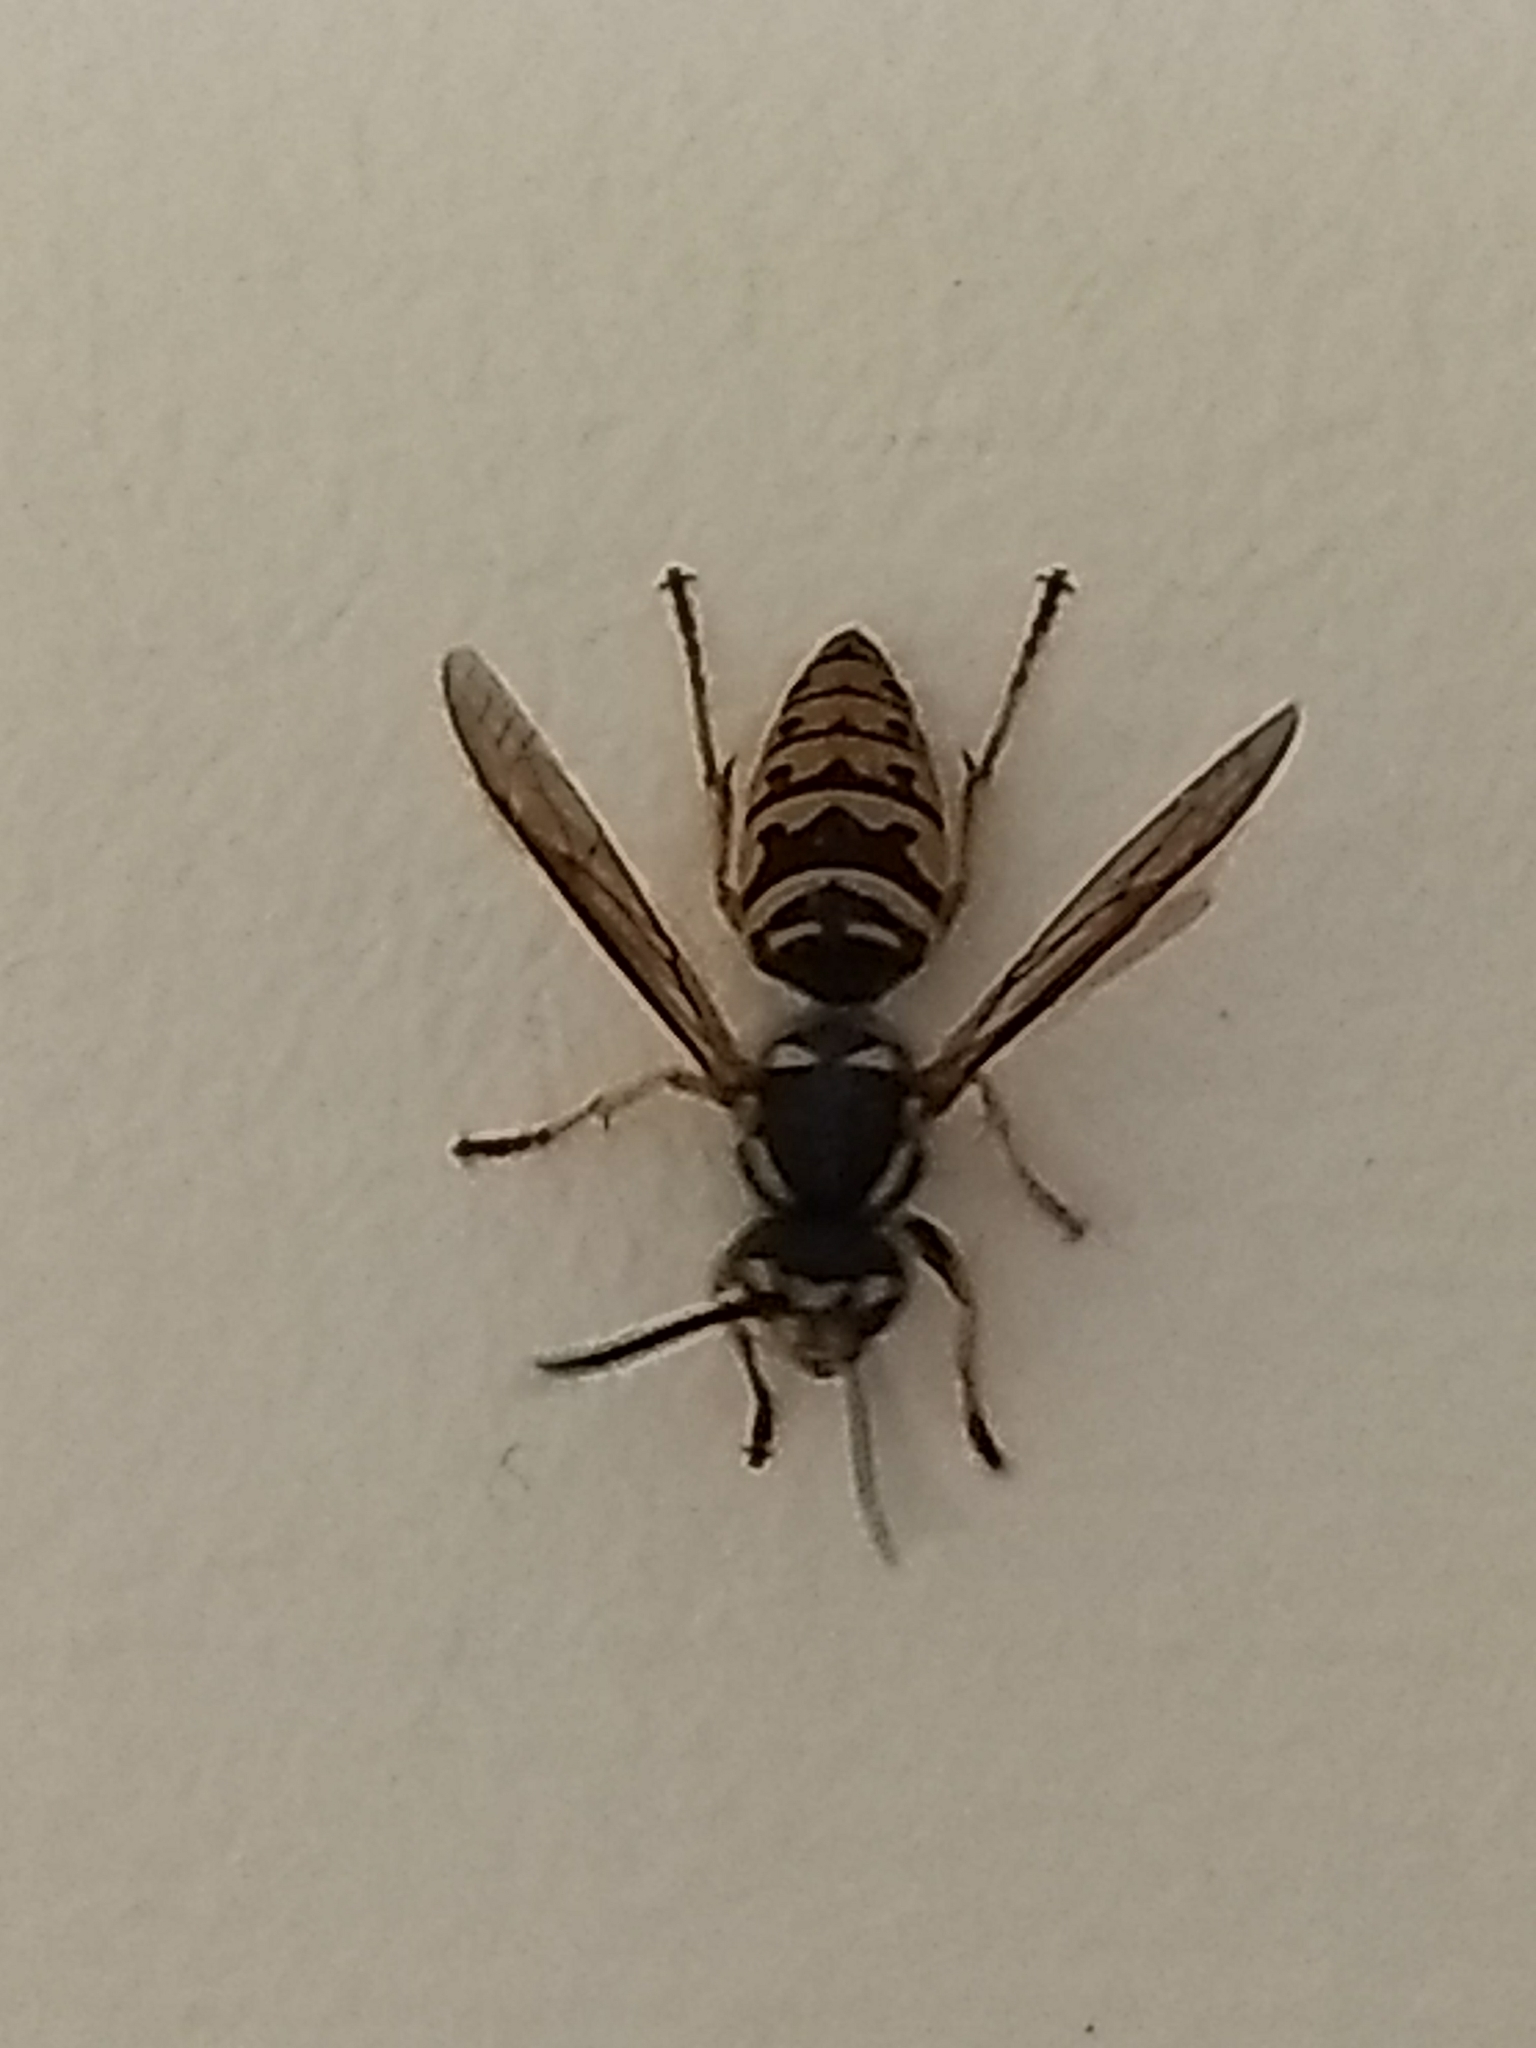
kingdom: Animalia
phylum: Arthropoda
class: Insecta
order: Hymenoptera
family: Vespidae
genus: Vespula
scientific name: Vespula maculifrons
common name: Eastern yellowjacket
